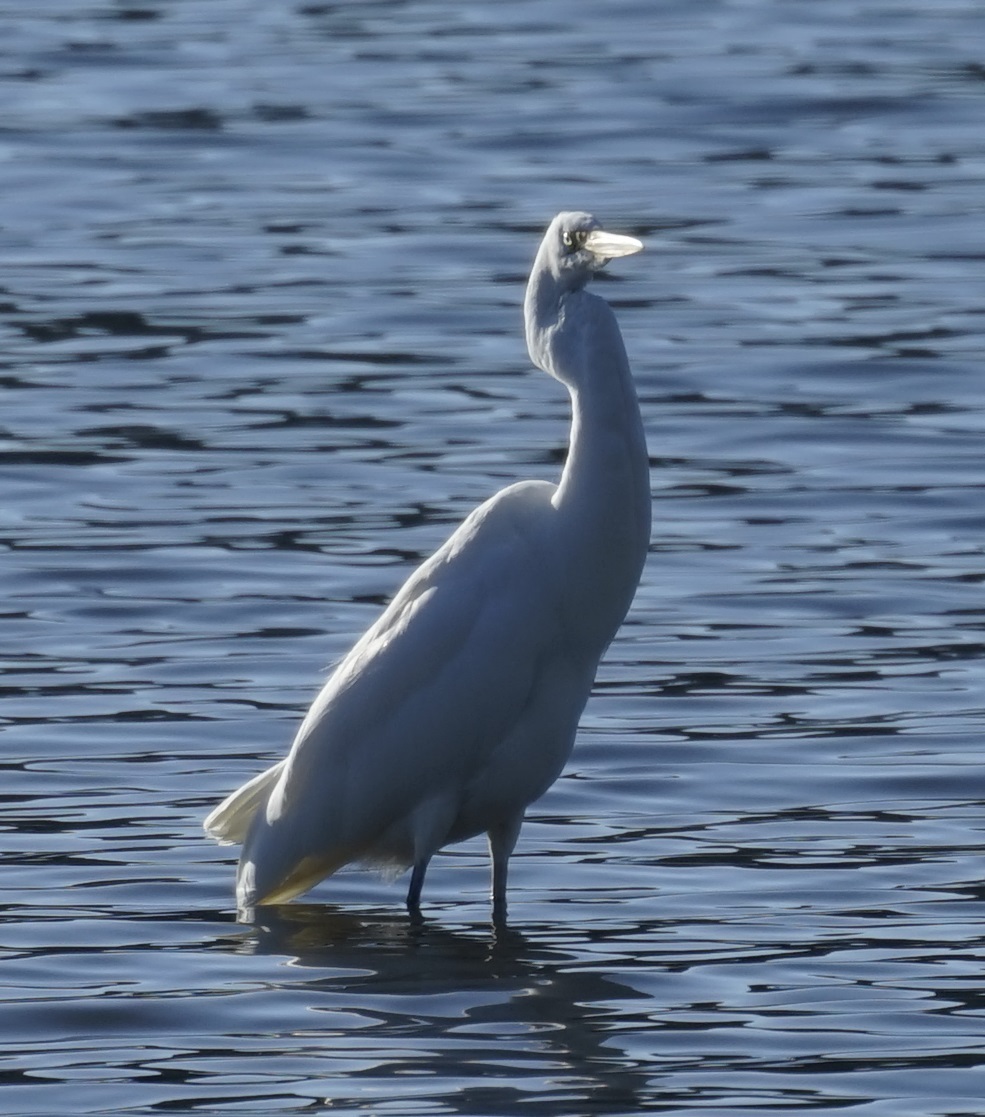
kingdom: Animalia
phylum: Chordata
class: Aves
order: Pelecaniformes
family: Ardeidae
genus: Ardea
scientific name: Ardea modesta
